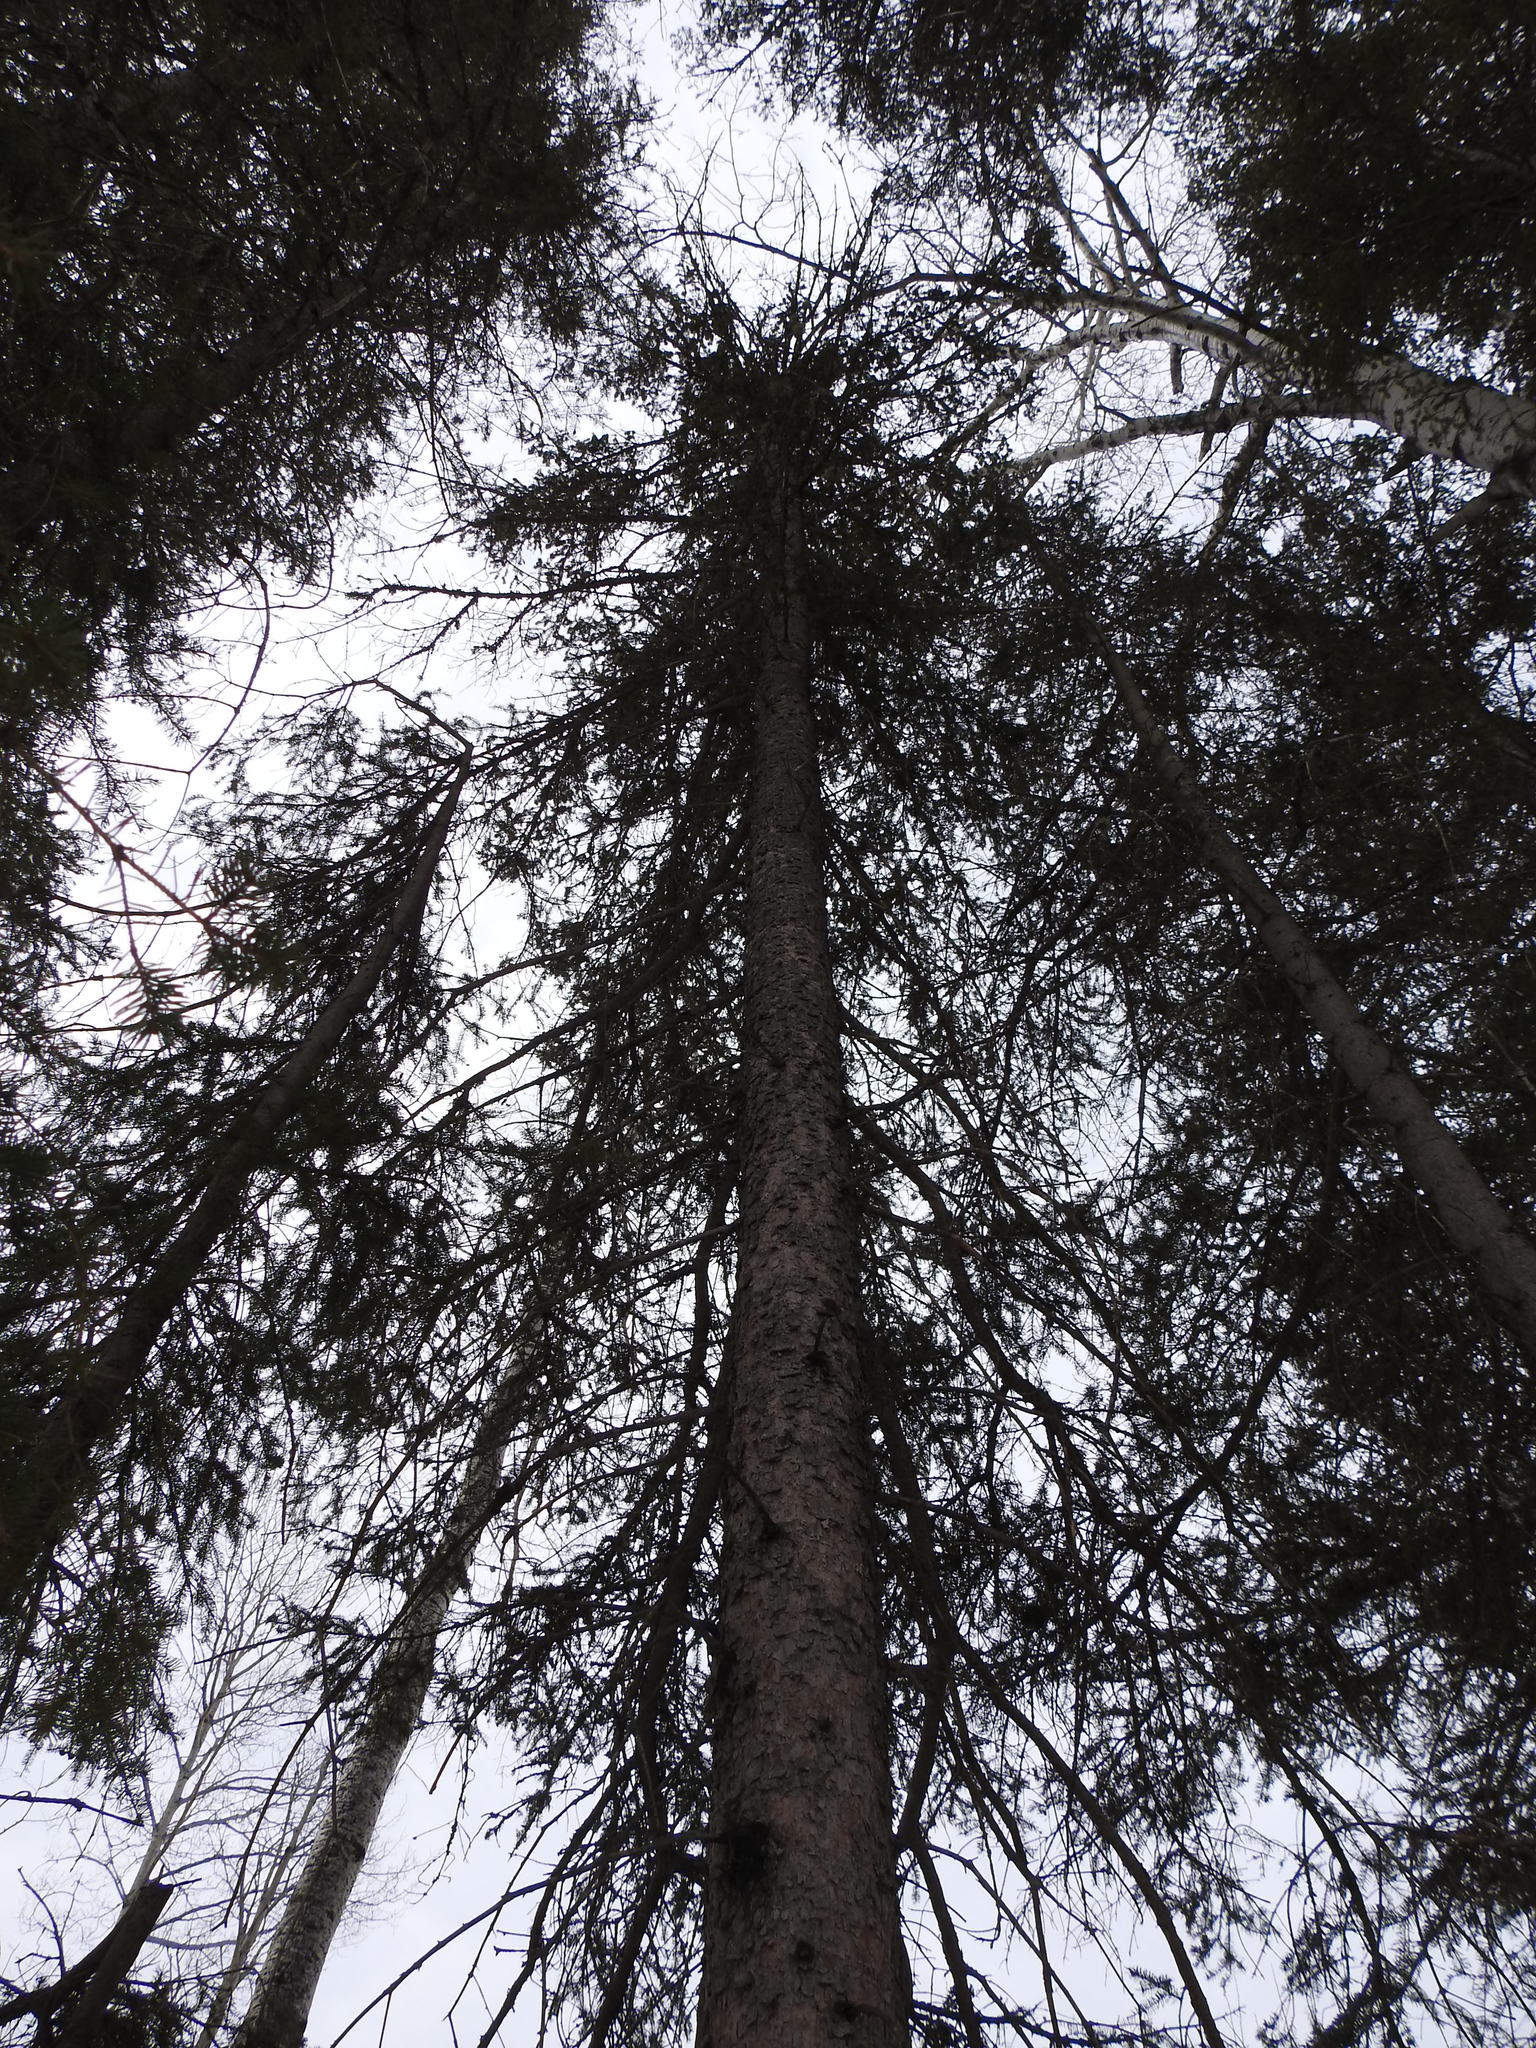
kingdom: Plantae
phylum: Tracheophyta
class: Pinopsida
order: Pinales
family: Pinaceae
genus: Picea
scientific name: Picea glauca
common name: White spruce
